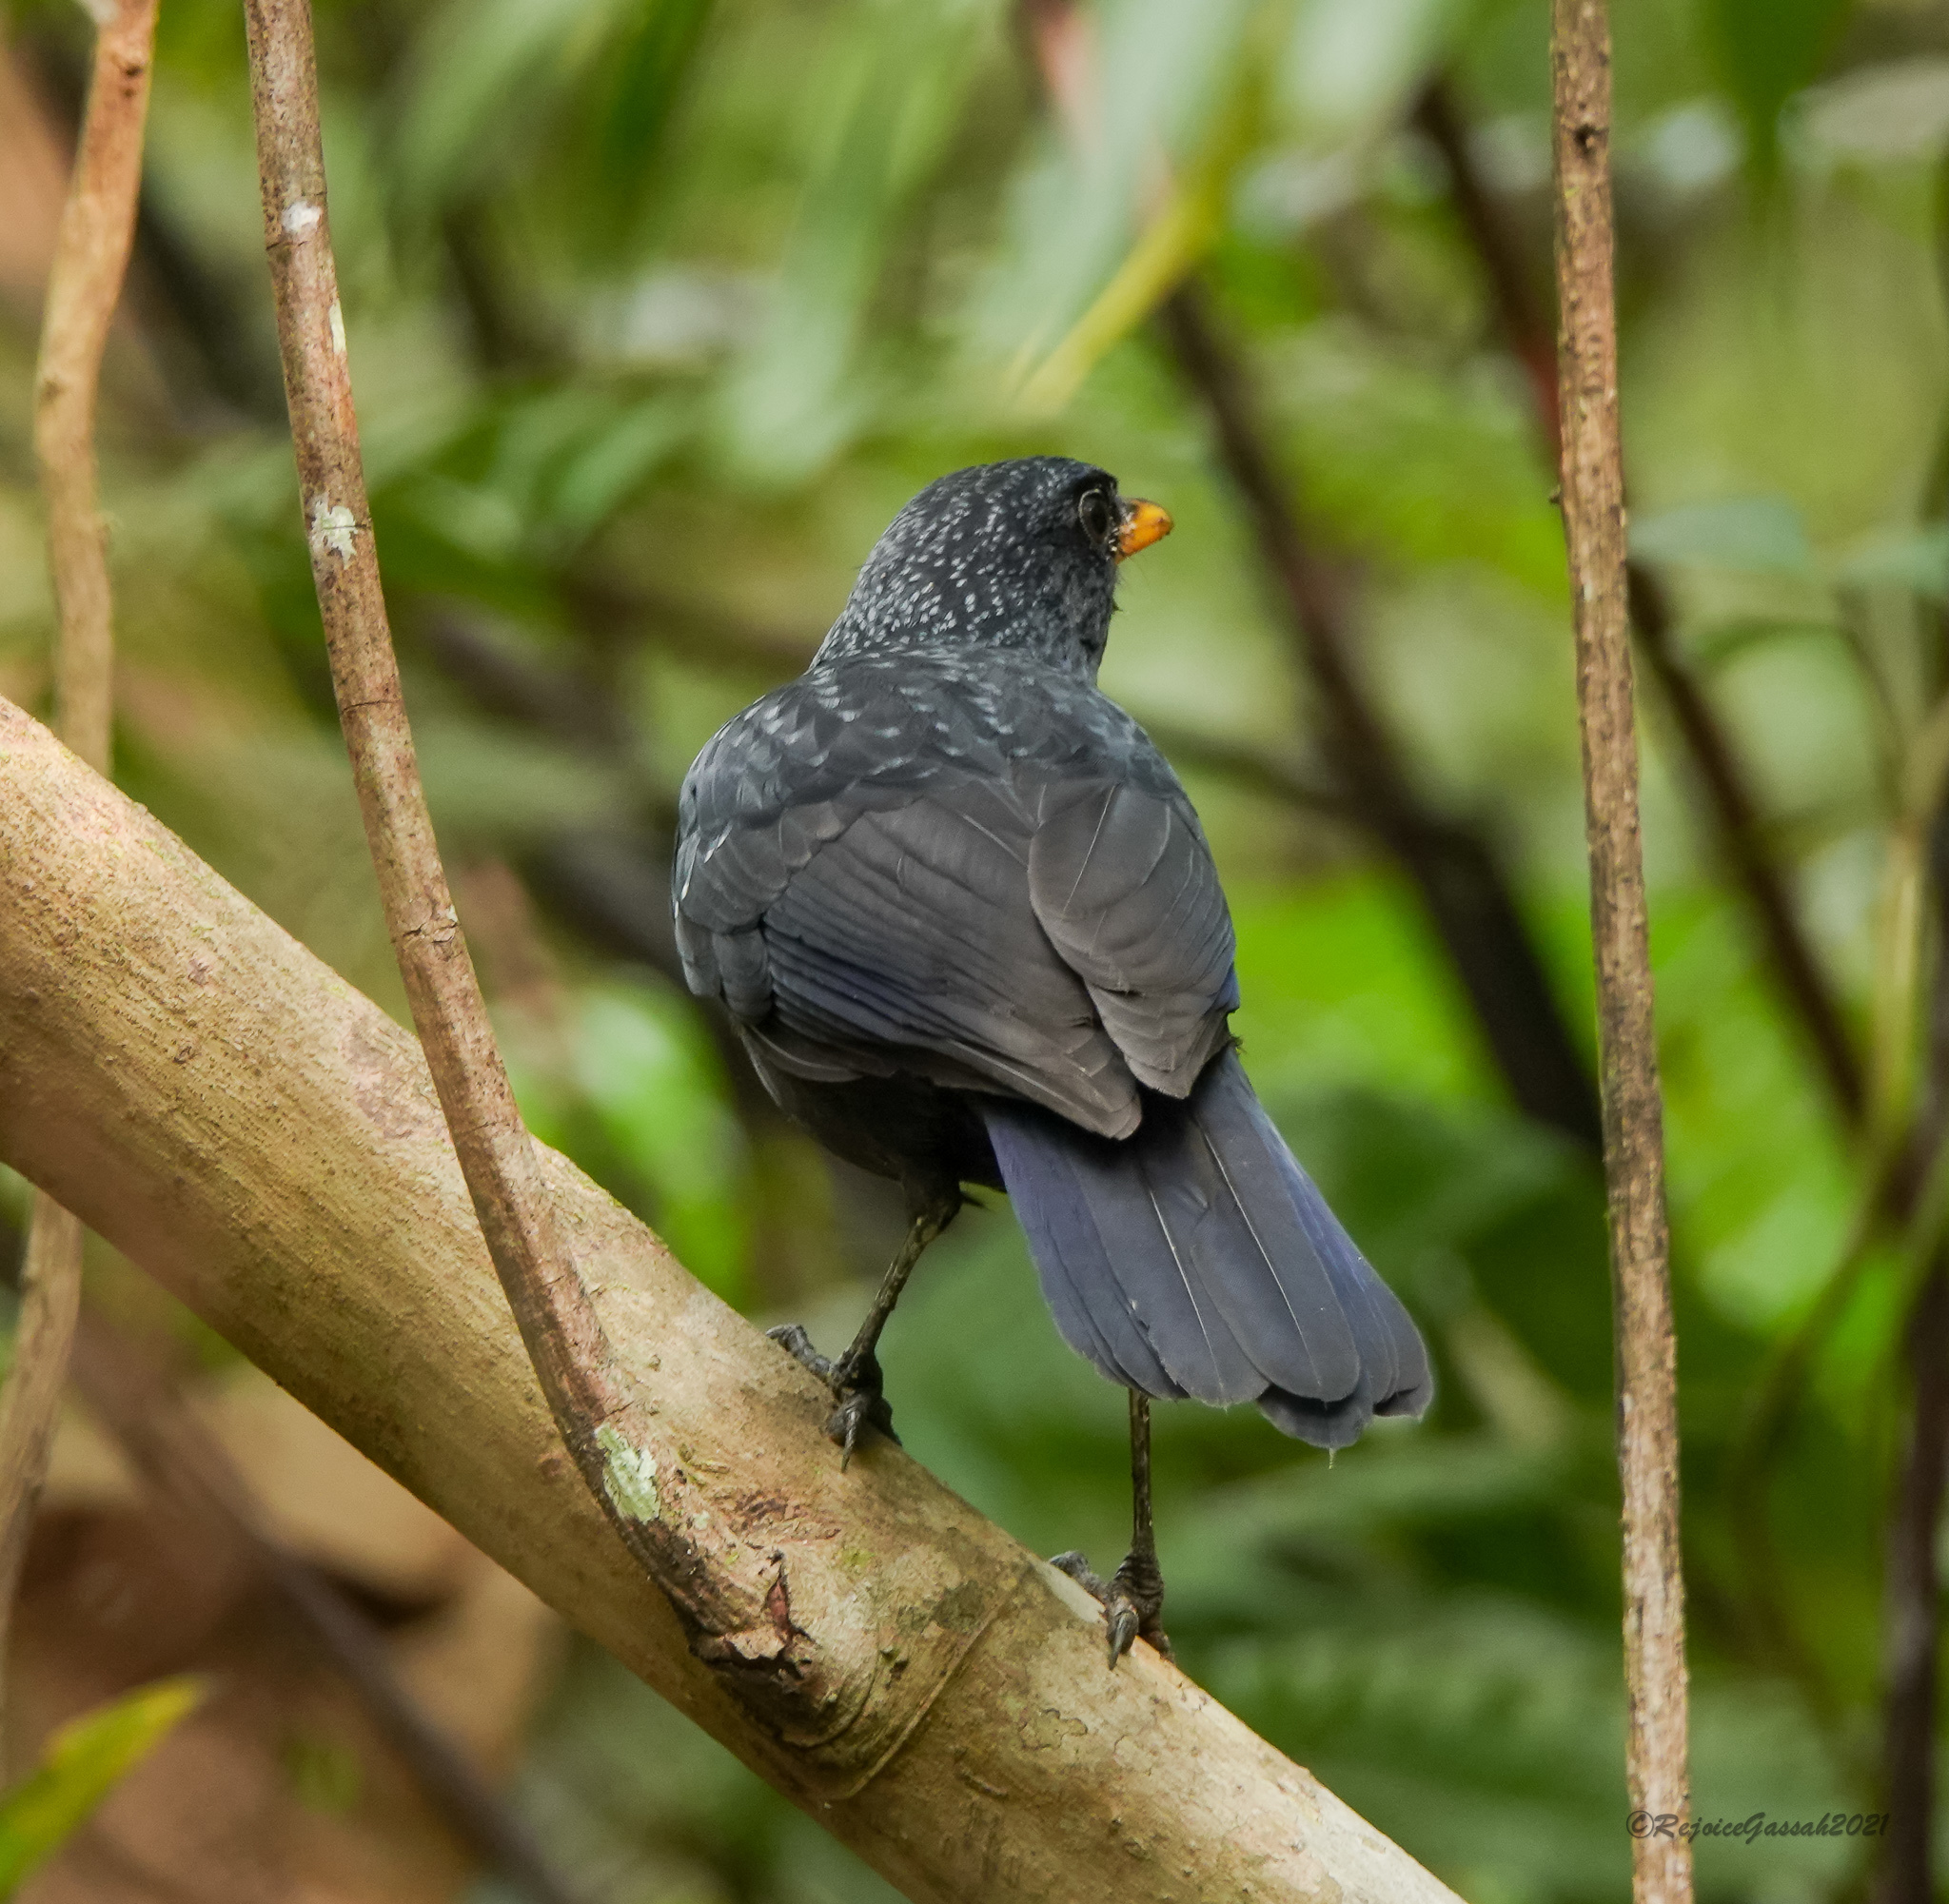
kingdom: Animalia
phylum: Chordata
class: Aves
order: Passeriformes
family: Muscicapidae
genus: Myophonus
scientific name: Myophonus caeruleus
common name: Blue whistling-thrush
